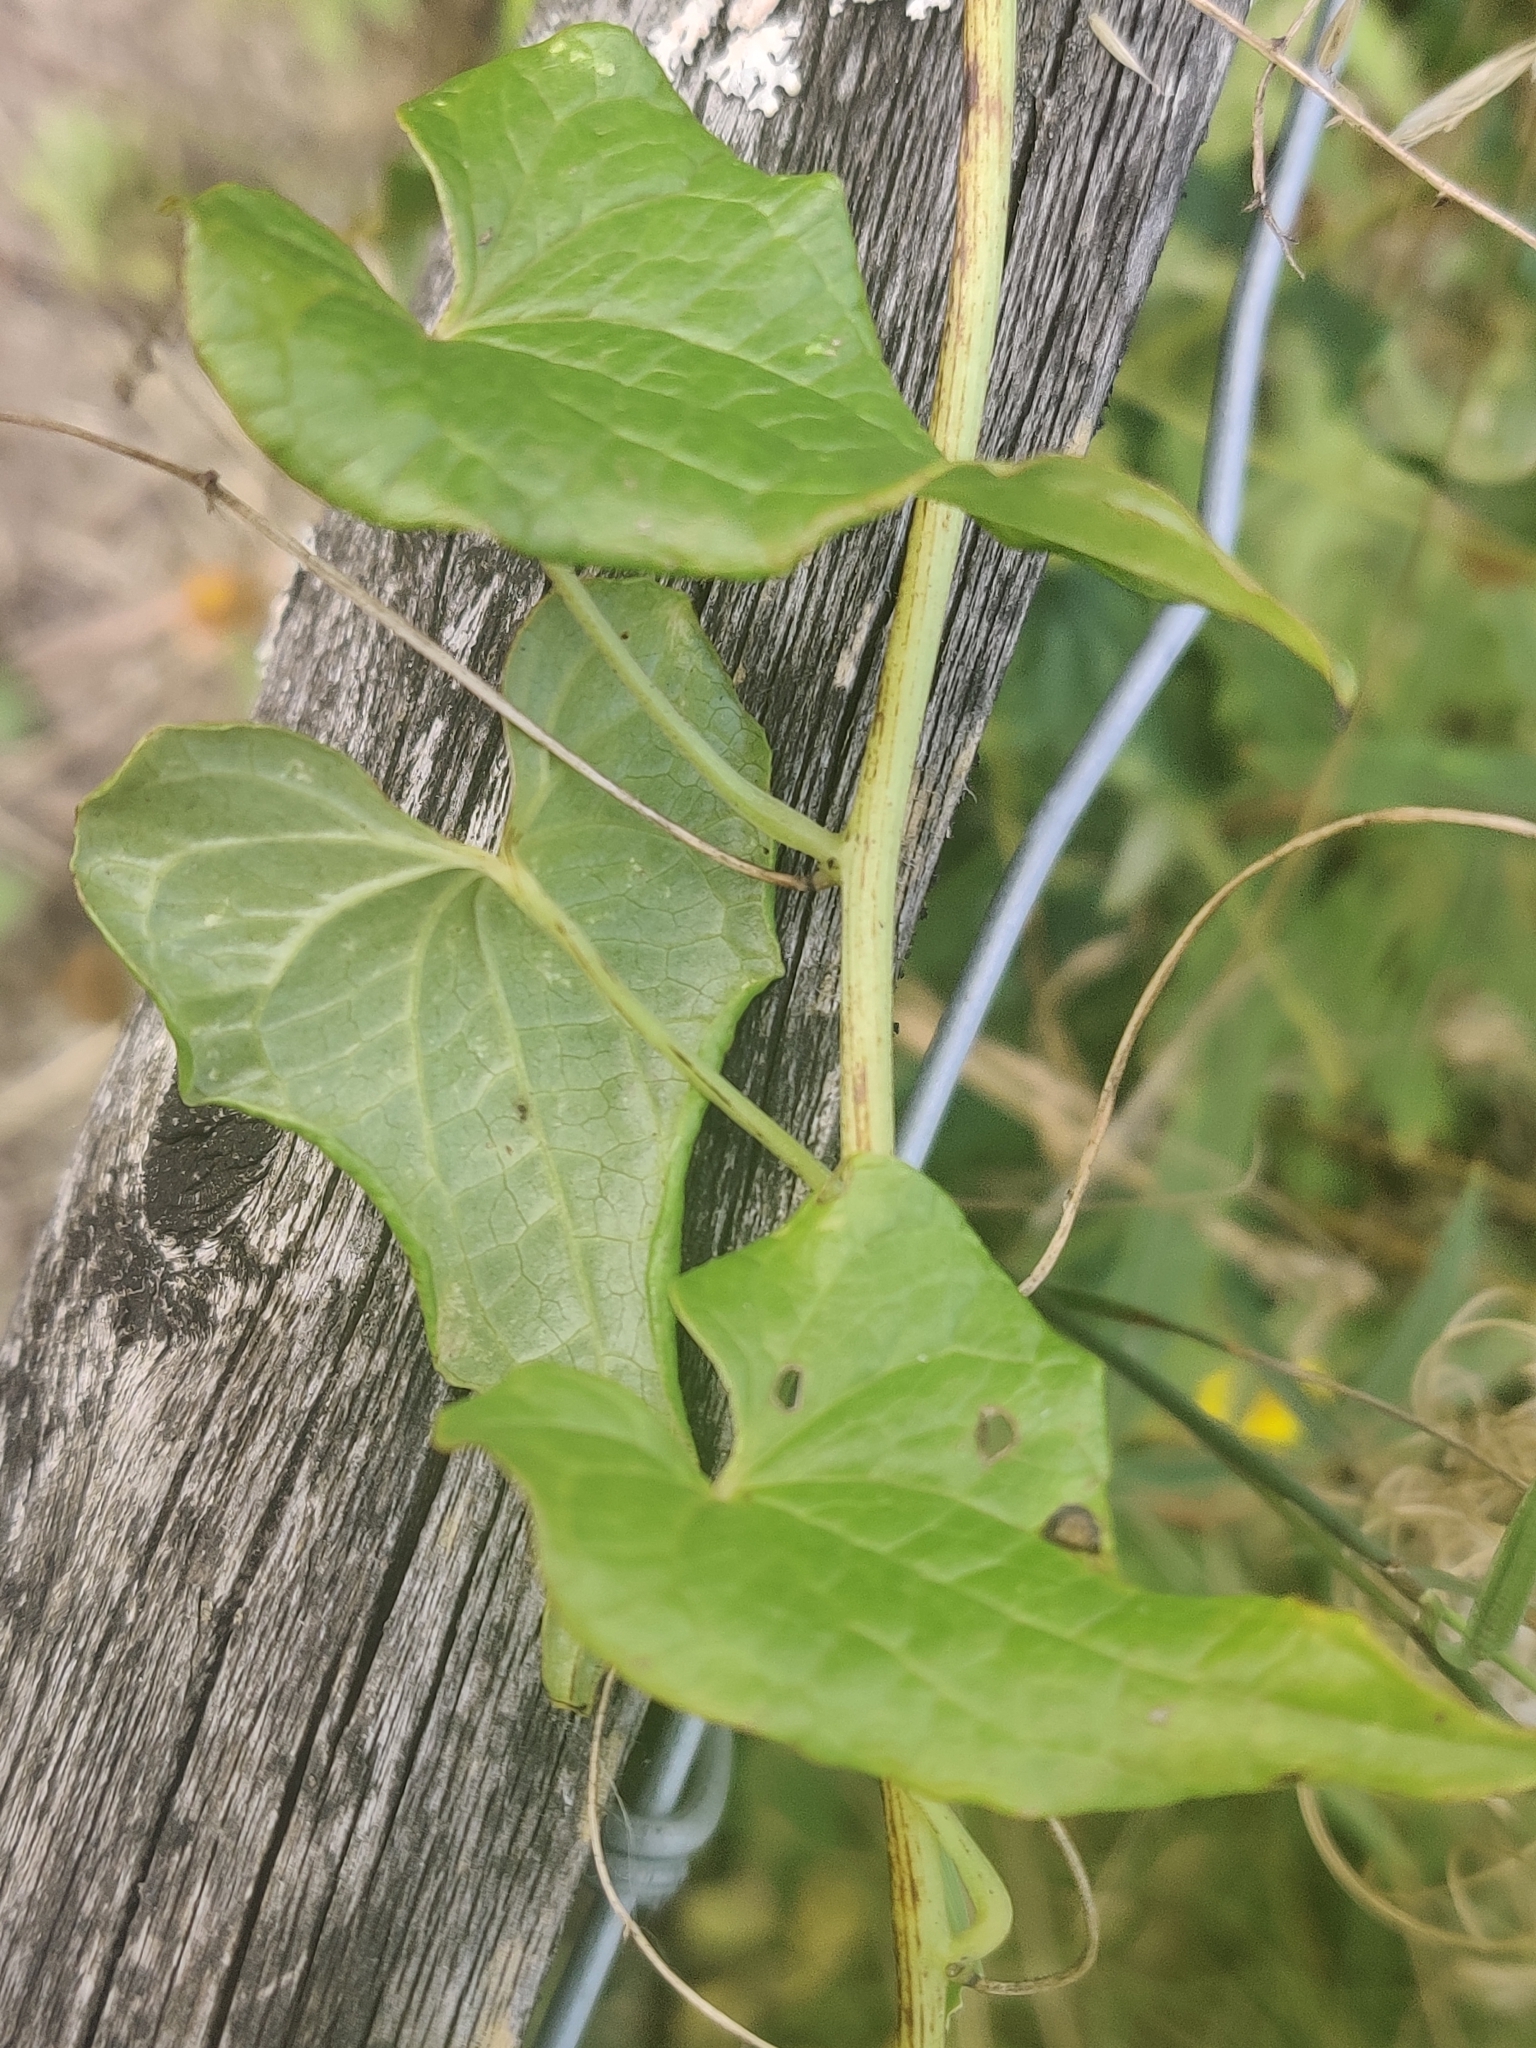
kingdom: Plantae
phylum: Tracheophyta
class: Liliopsida
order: Dioscoreales
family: Dioscoreaceae
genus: Dioscorea
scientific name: Dioscorea communis
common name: Black-bindweed
